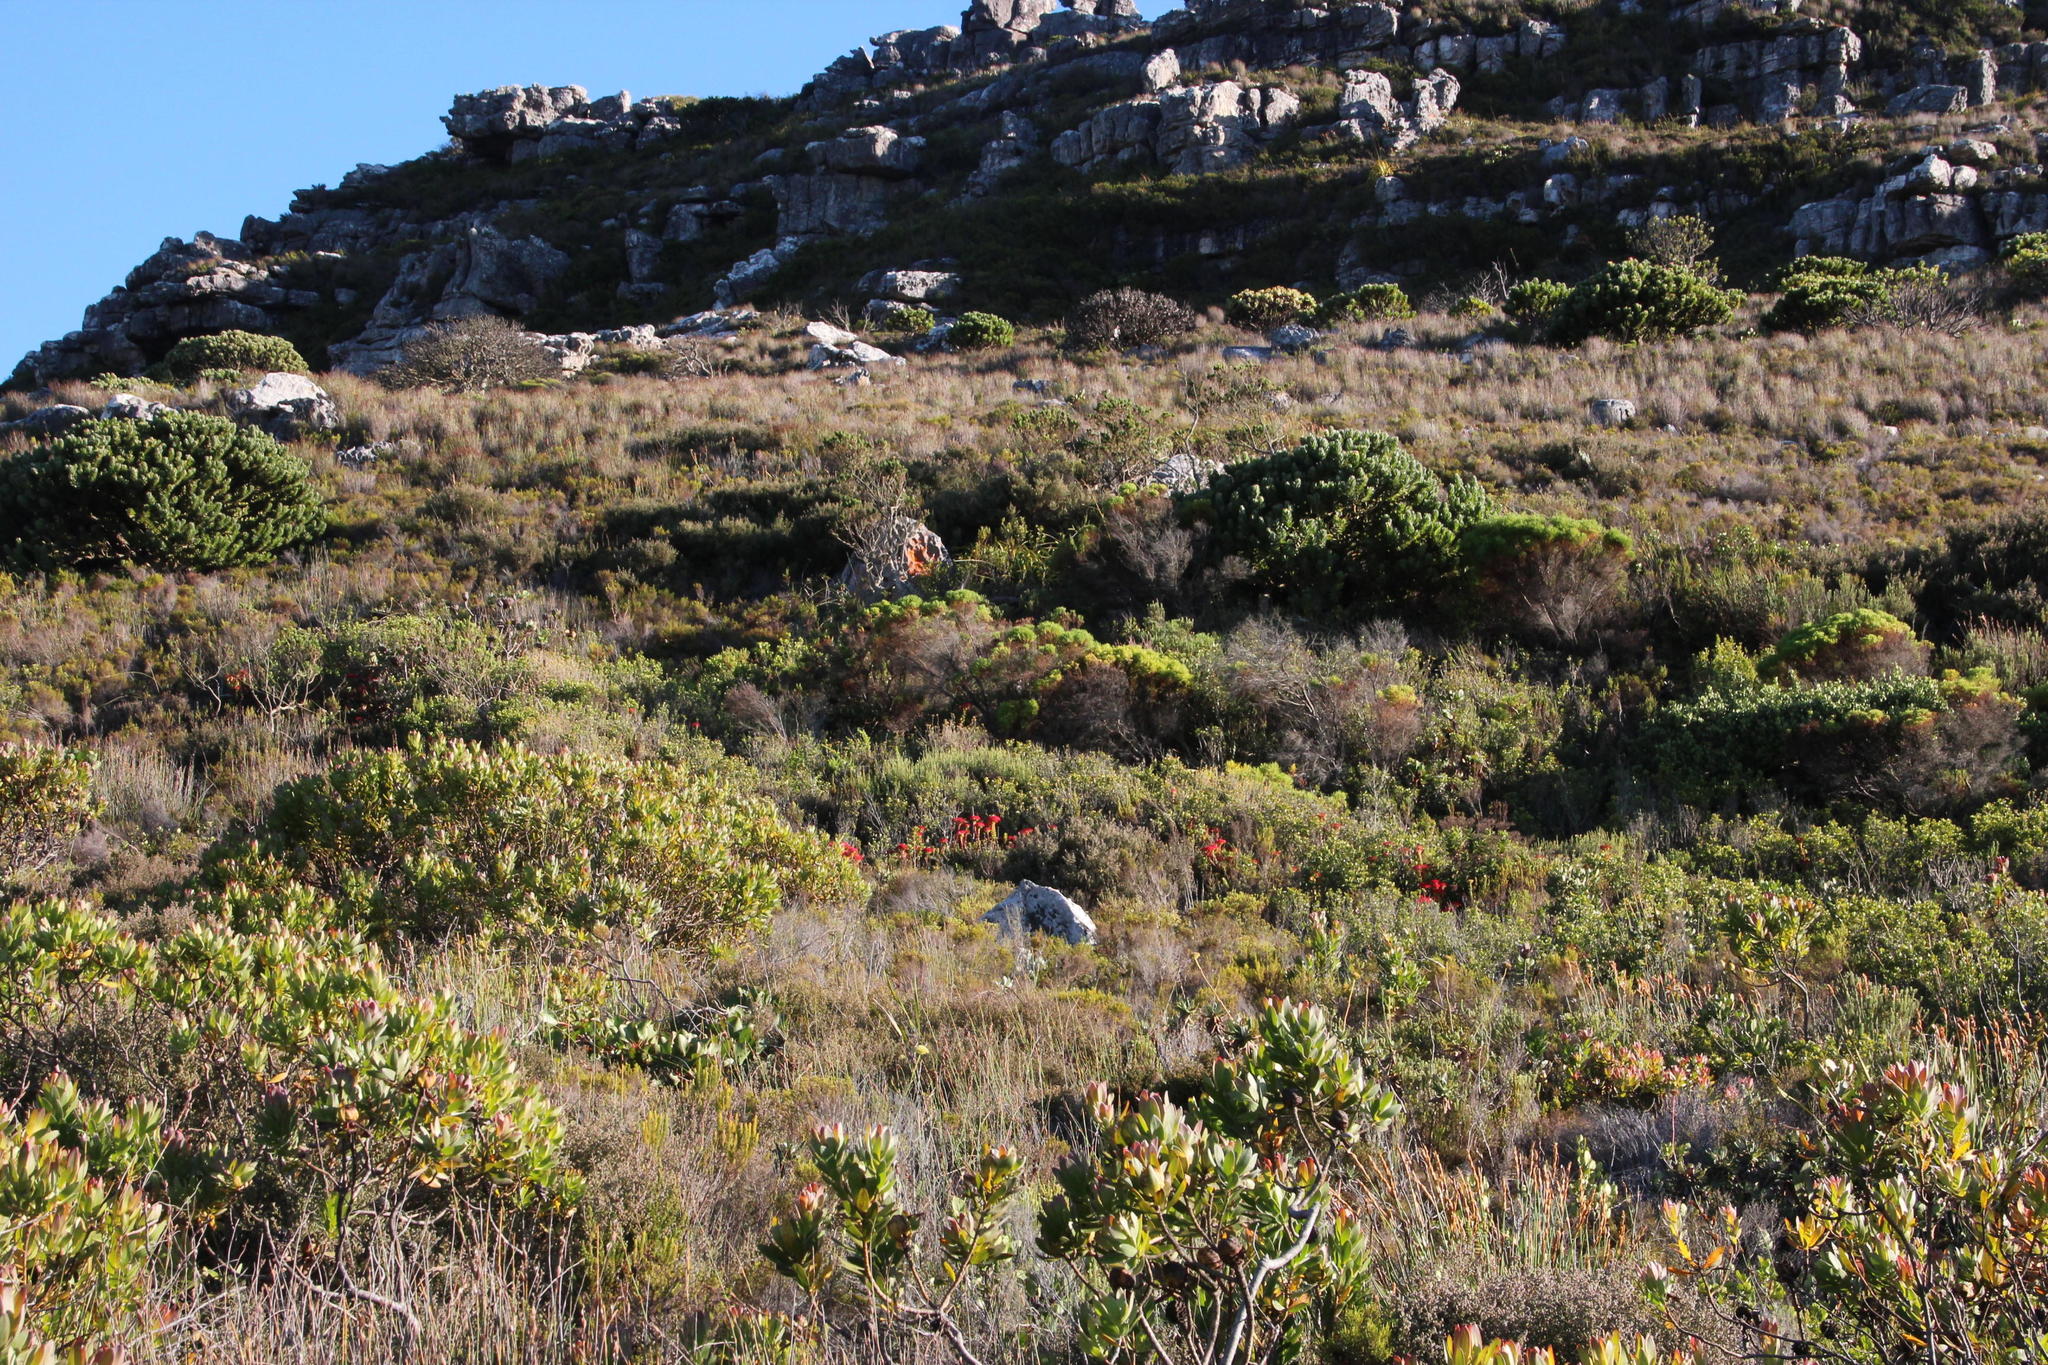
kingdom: Plantae
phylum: Tracheophyta
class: Magnoliopsida
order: Saxifragales
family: Crassulaceae
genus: Crassula
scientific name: Crassula coccinea
